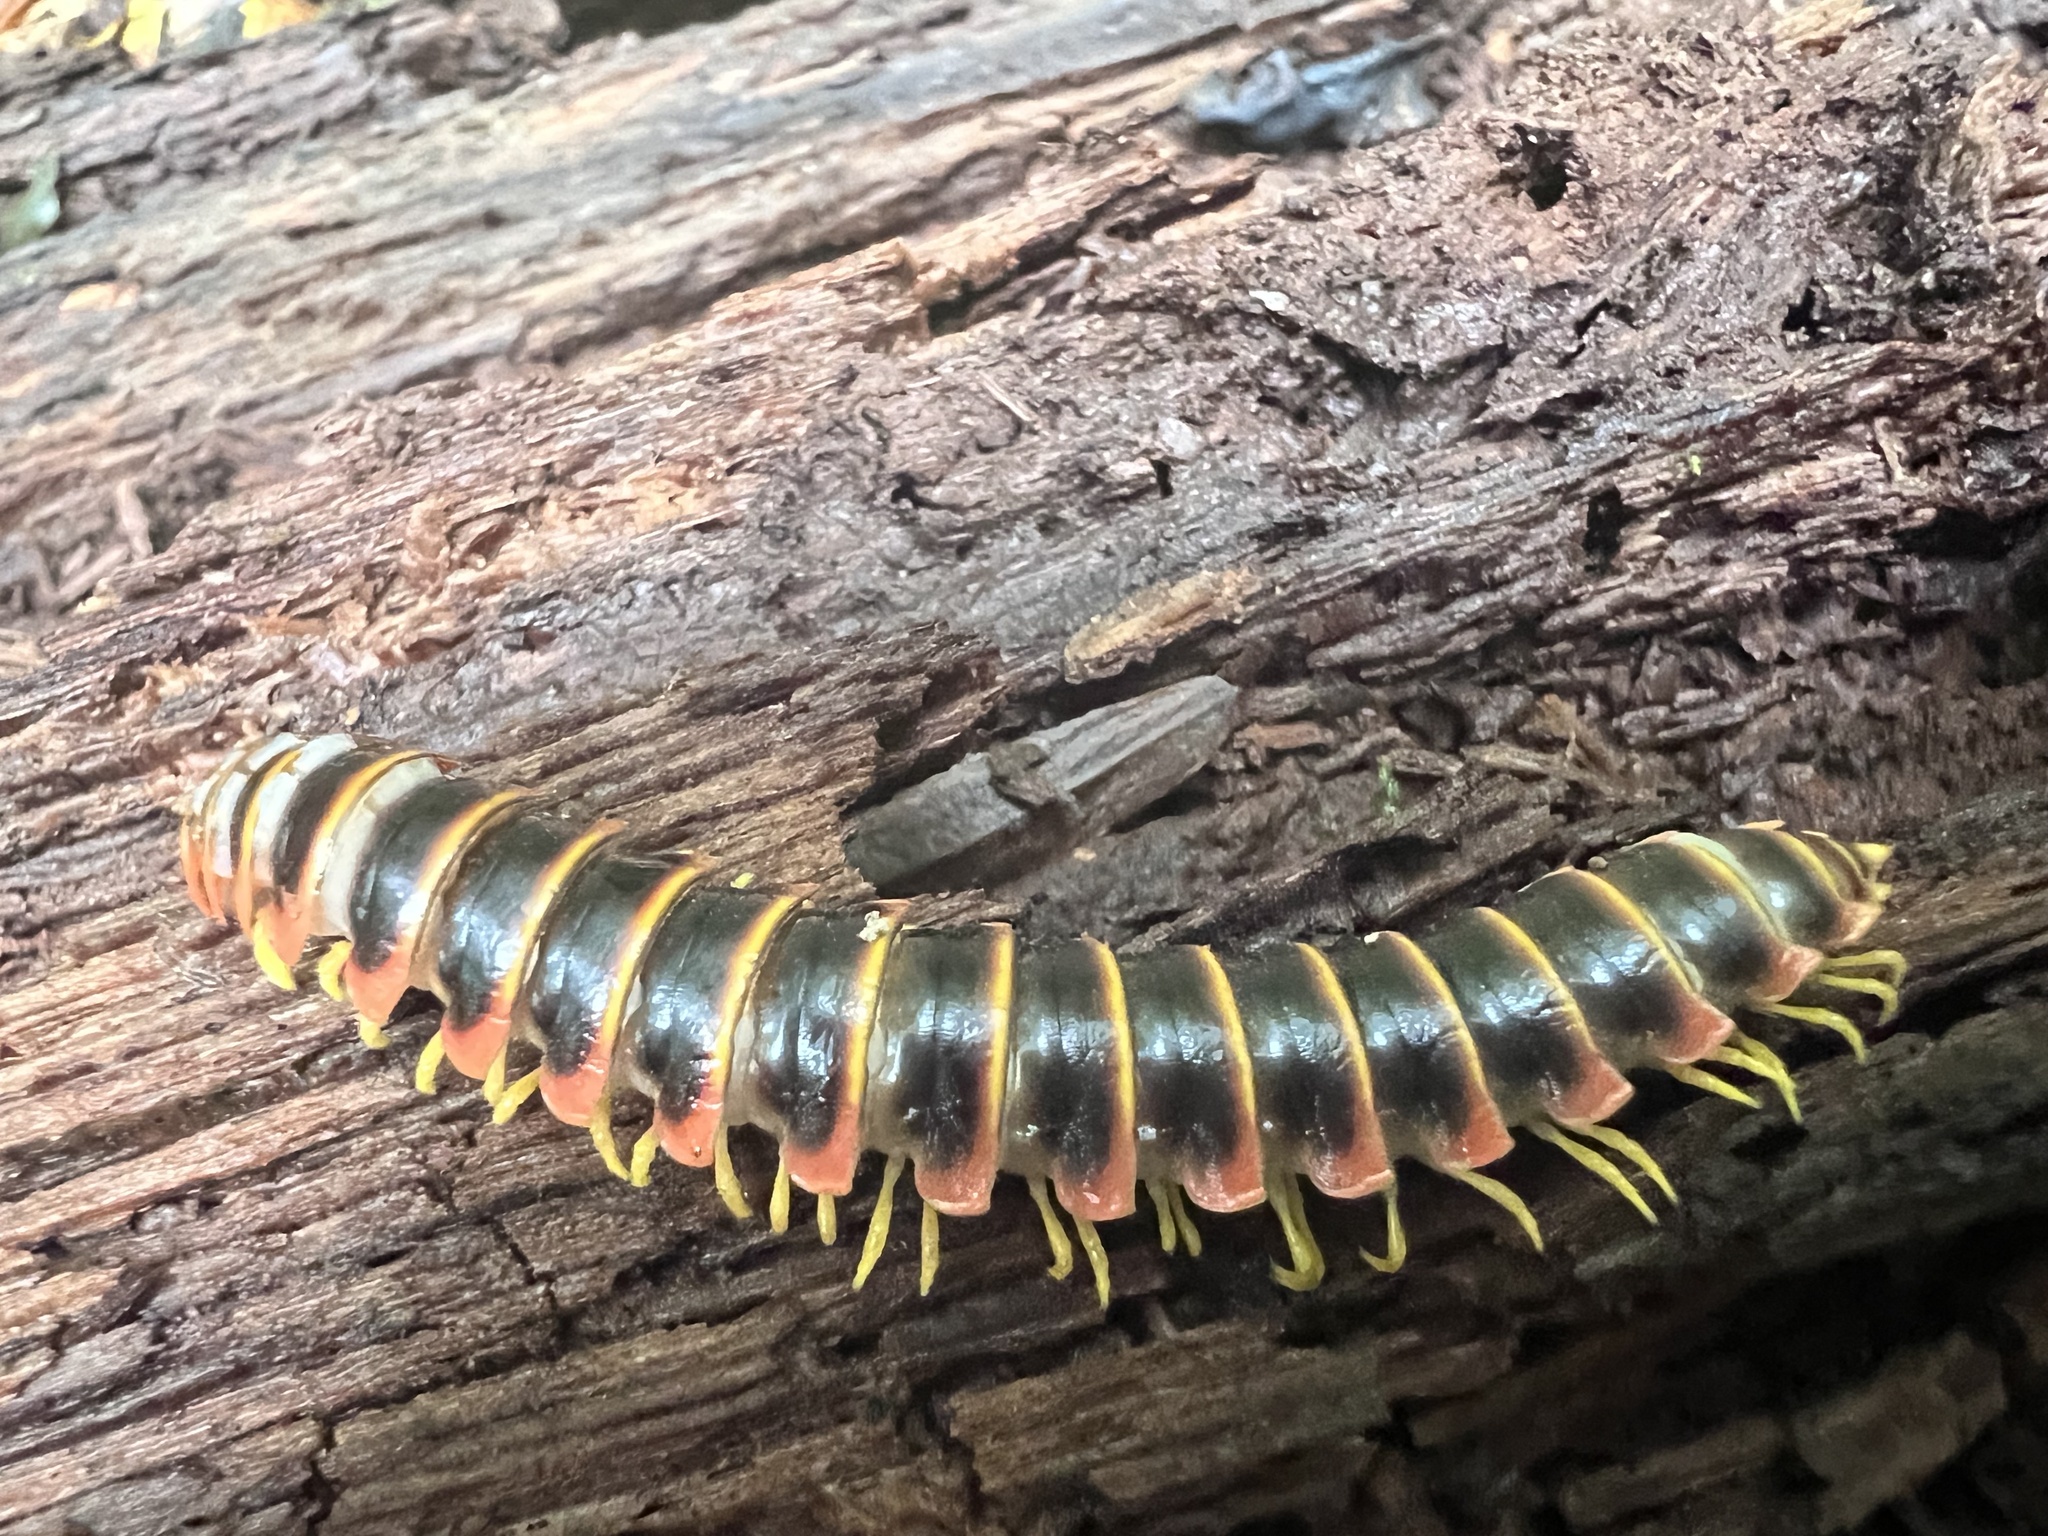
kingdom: Animalia
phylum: Arthropoda
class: Diplopoda
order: Polydesmida
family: Xystodesmidae
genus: Apheloria
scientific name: Apheloria virginiensis
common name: Black-and-gold flat millipede
